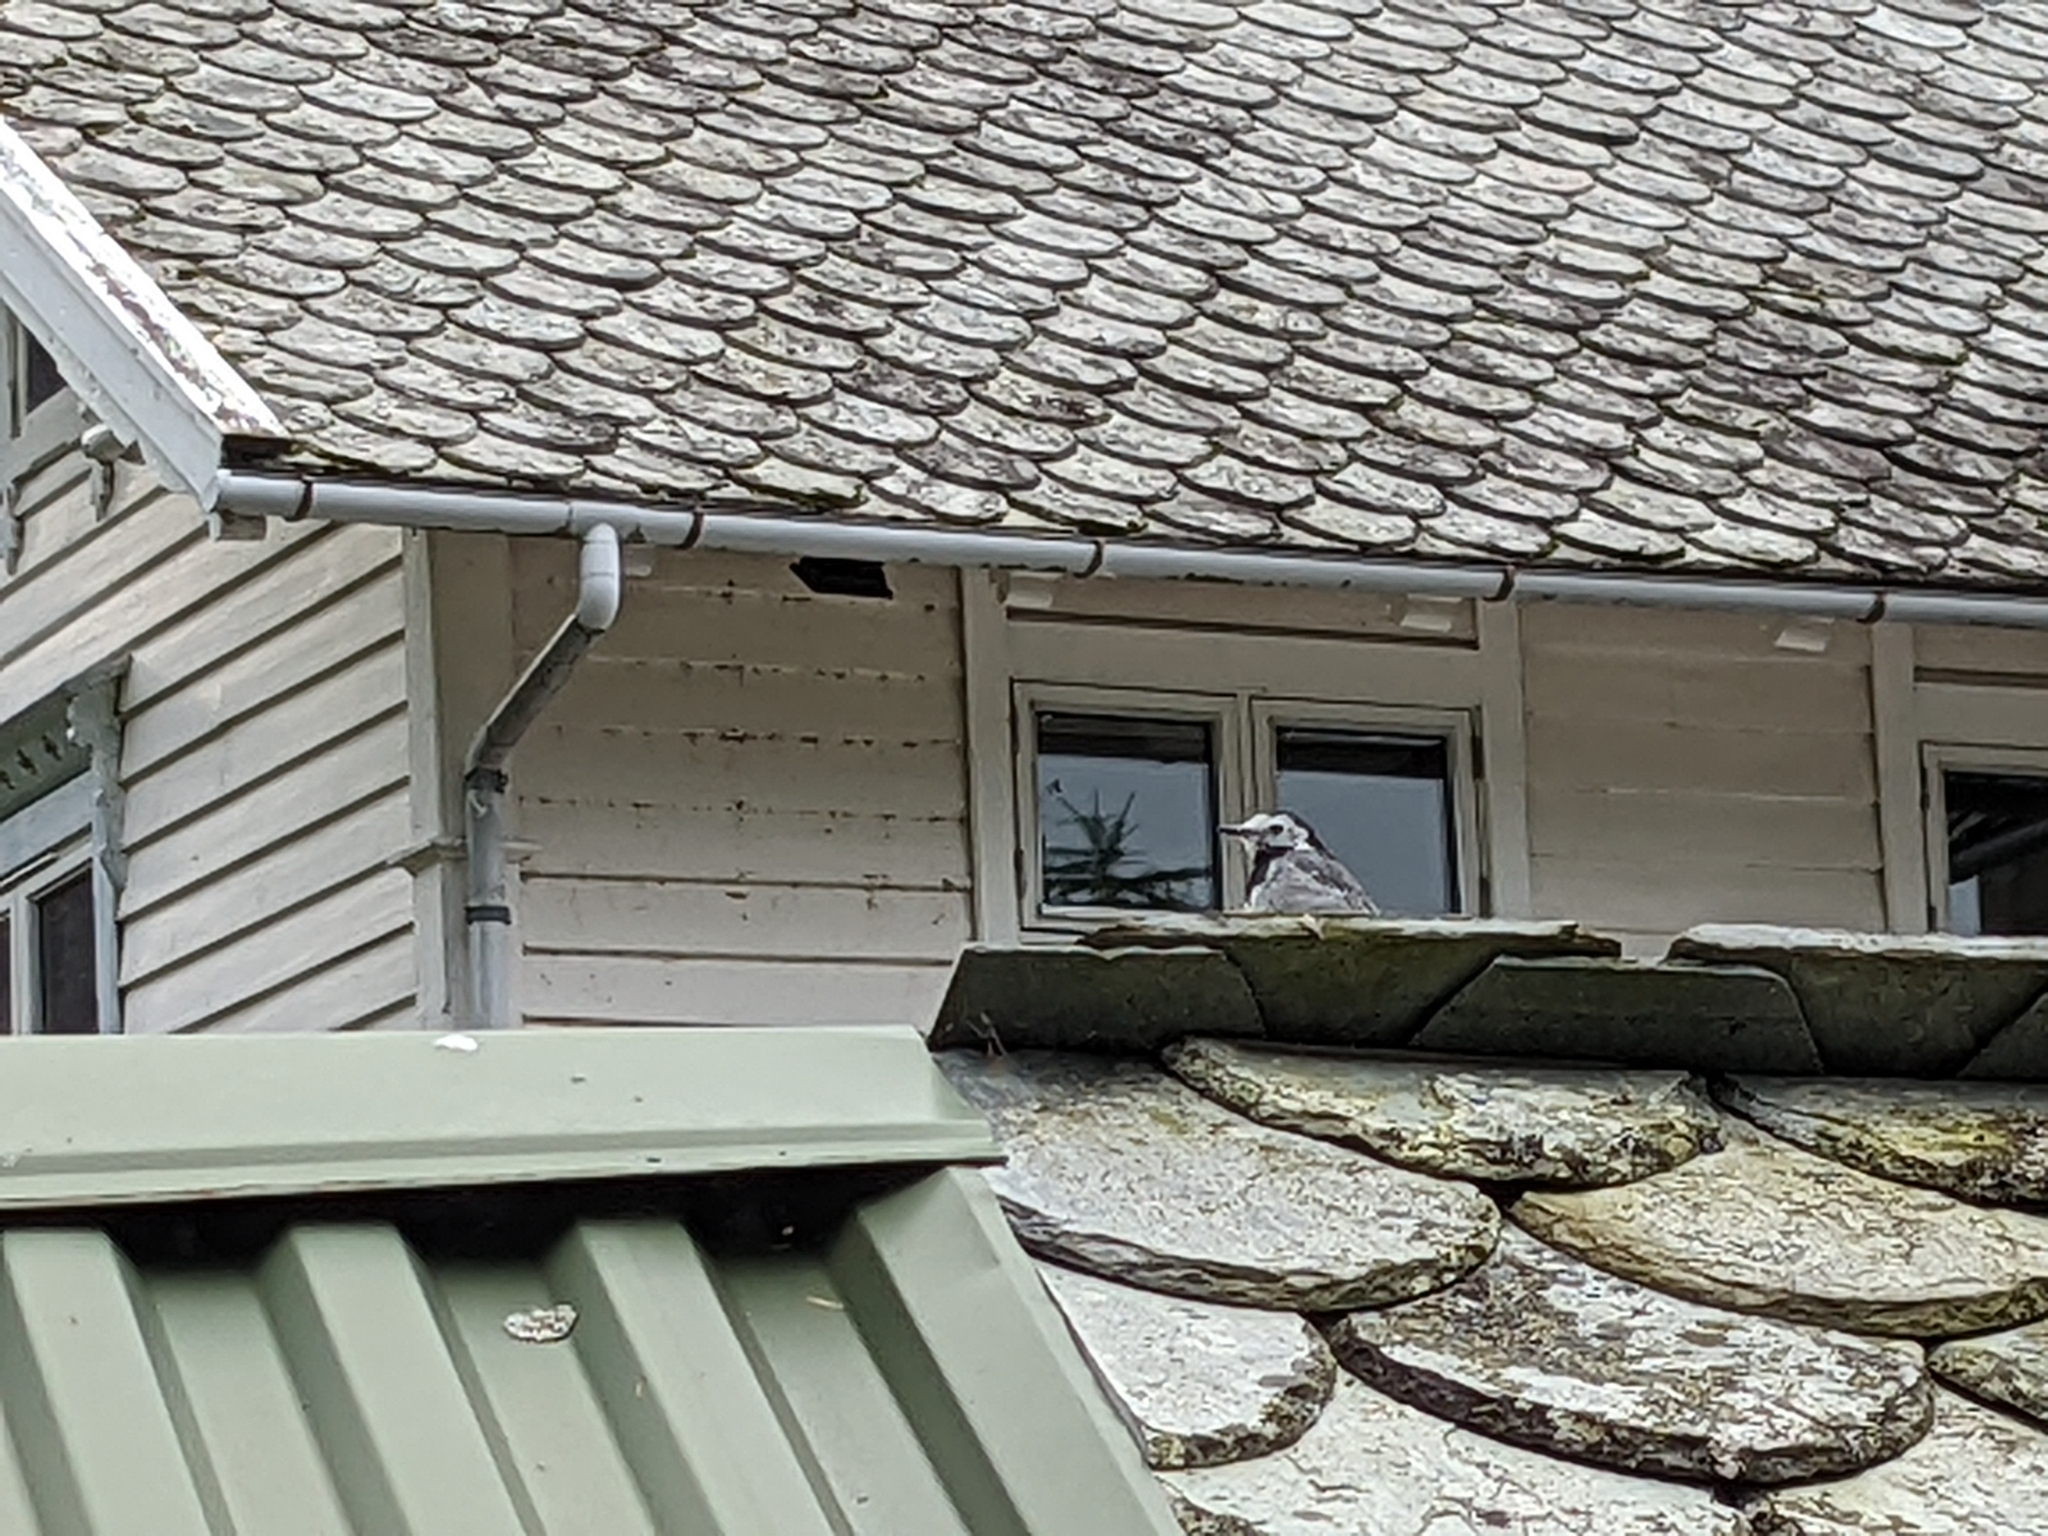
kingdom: Animalia
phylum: Chordata
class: Aves
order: Passeriformes
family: Motacillidae
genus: Motacilla
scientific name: Motacilla alba
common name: White wagtail
